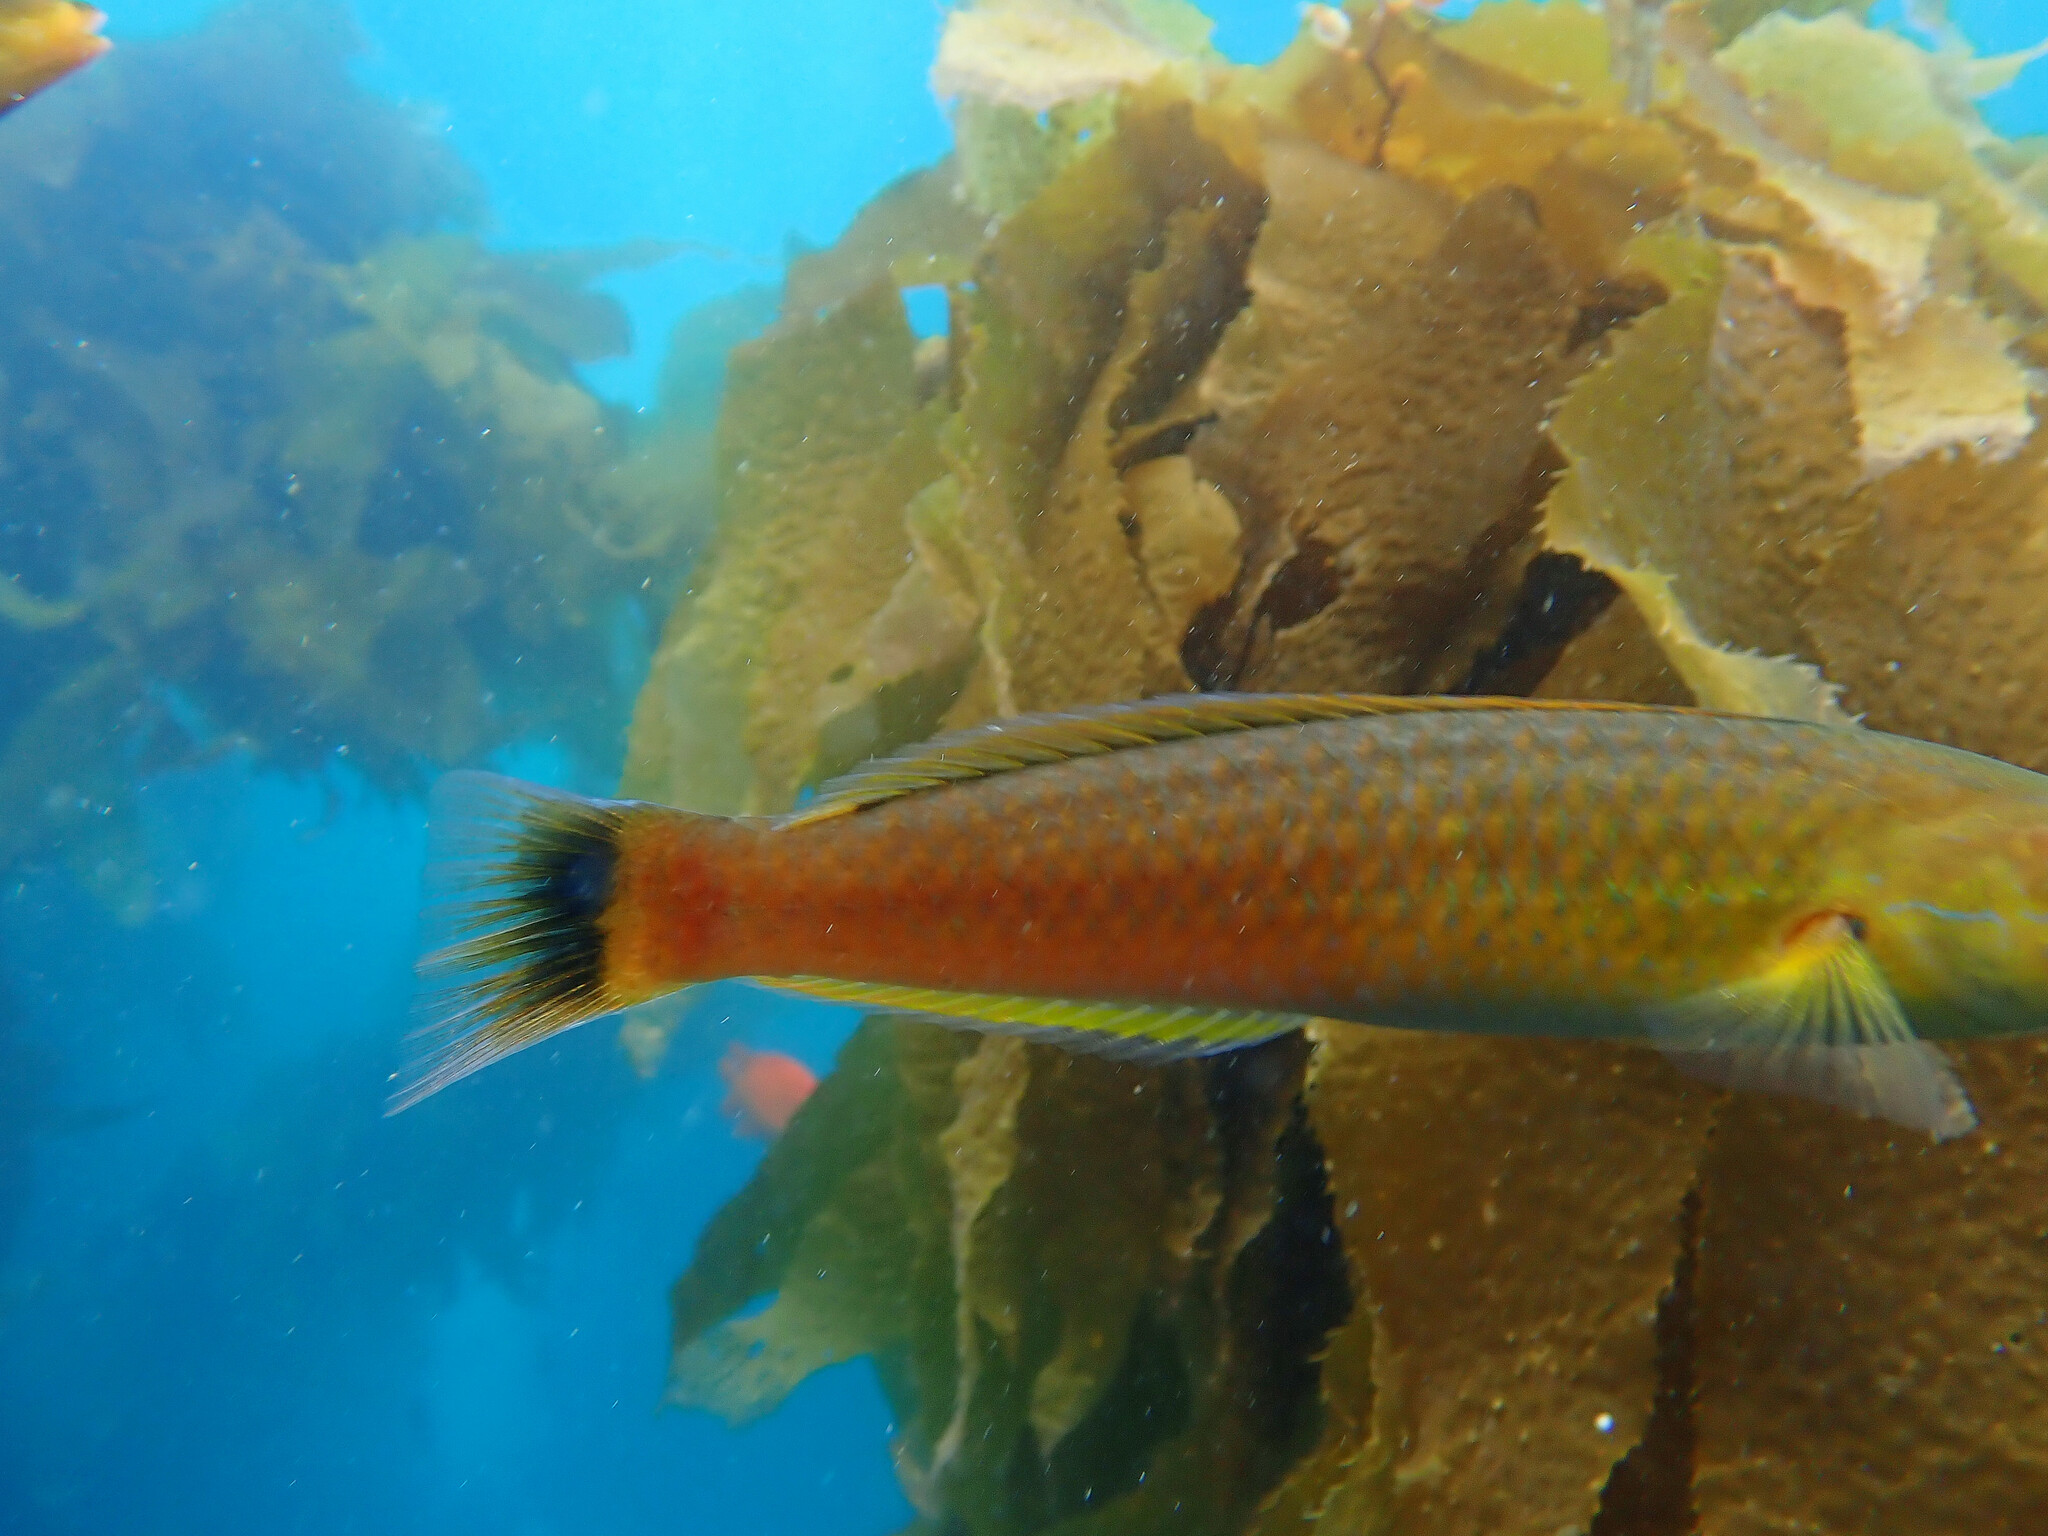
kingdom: Animalia
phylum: Chordata
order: Perciformes
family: Labridae
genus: Oxyjulis
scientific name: Oxyjulis californica
